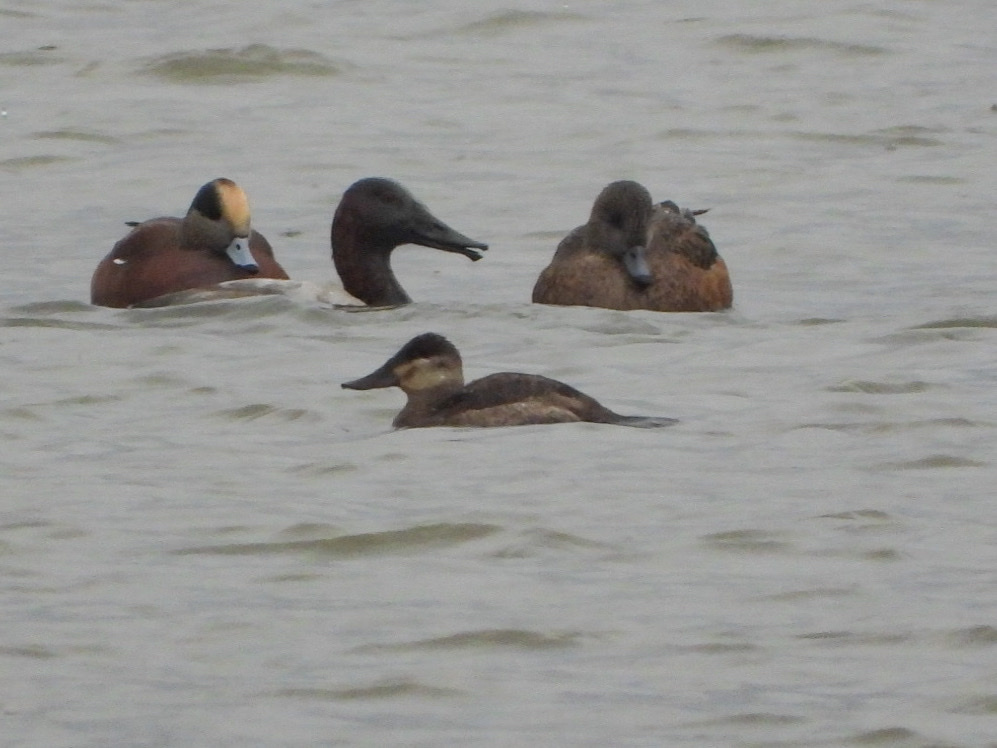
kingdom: Animalia
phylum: Chordata
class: Aves
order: Anseriformes
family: Anatidae
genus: Oxyura
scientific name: Oxyura jamaicensis
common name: Ruddy duck
